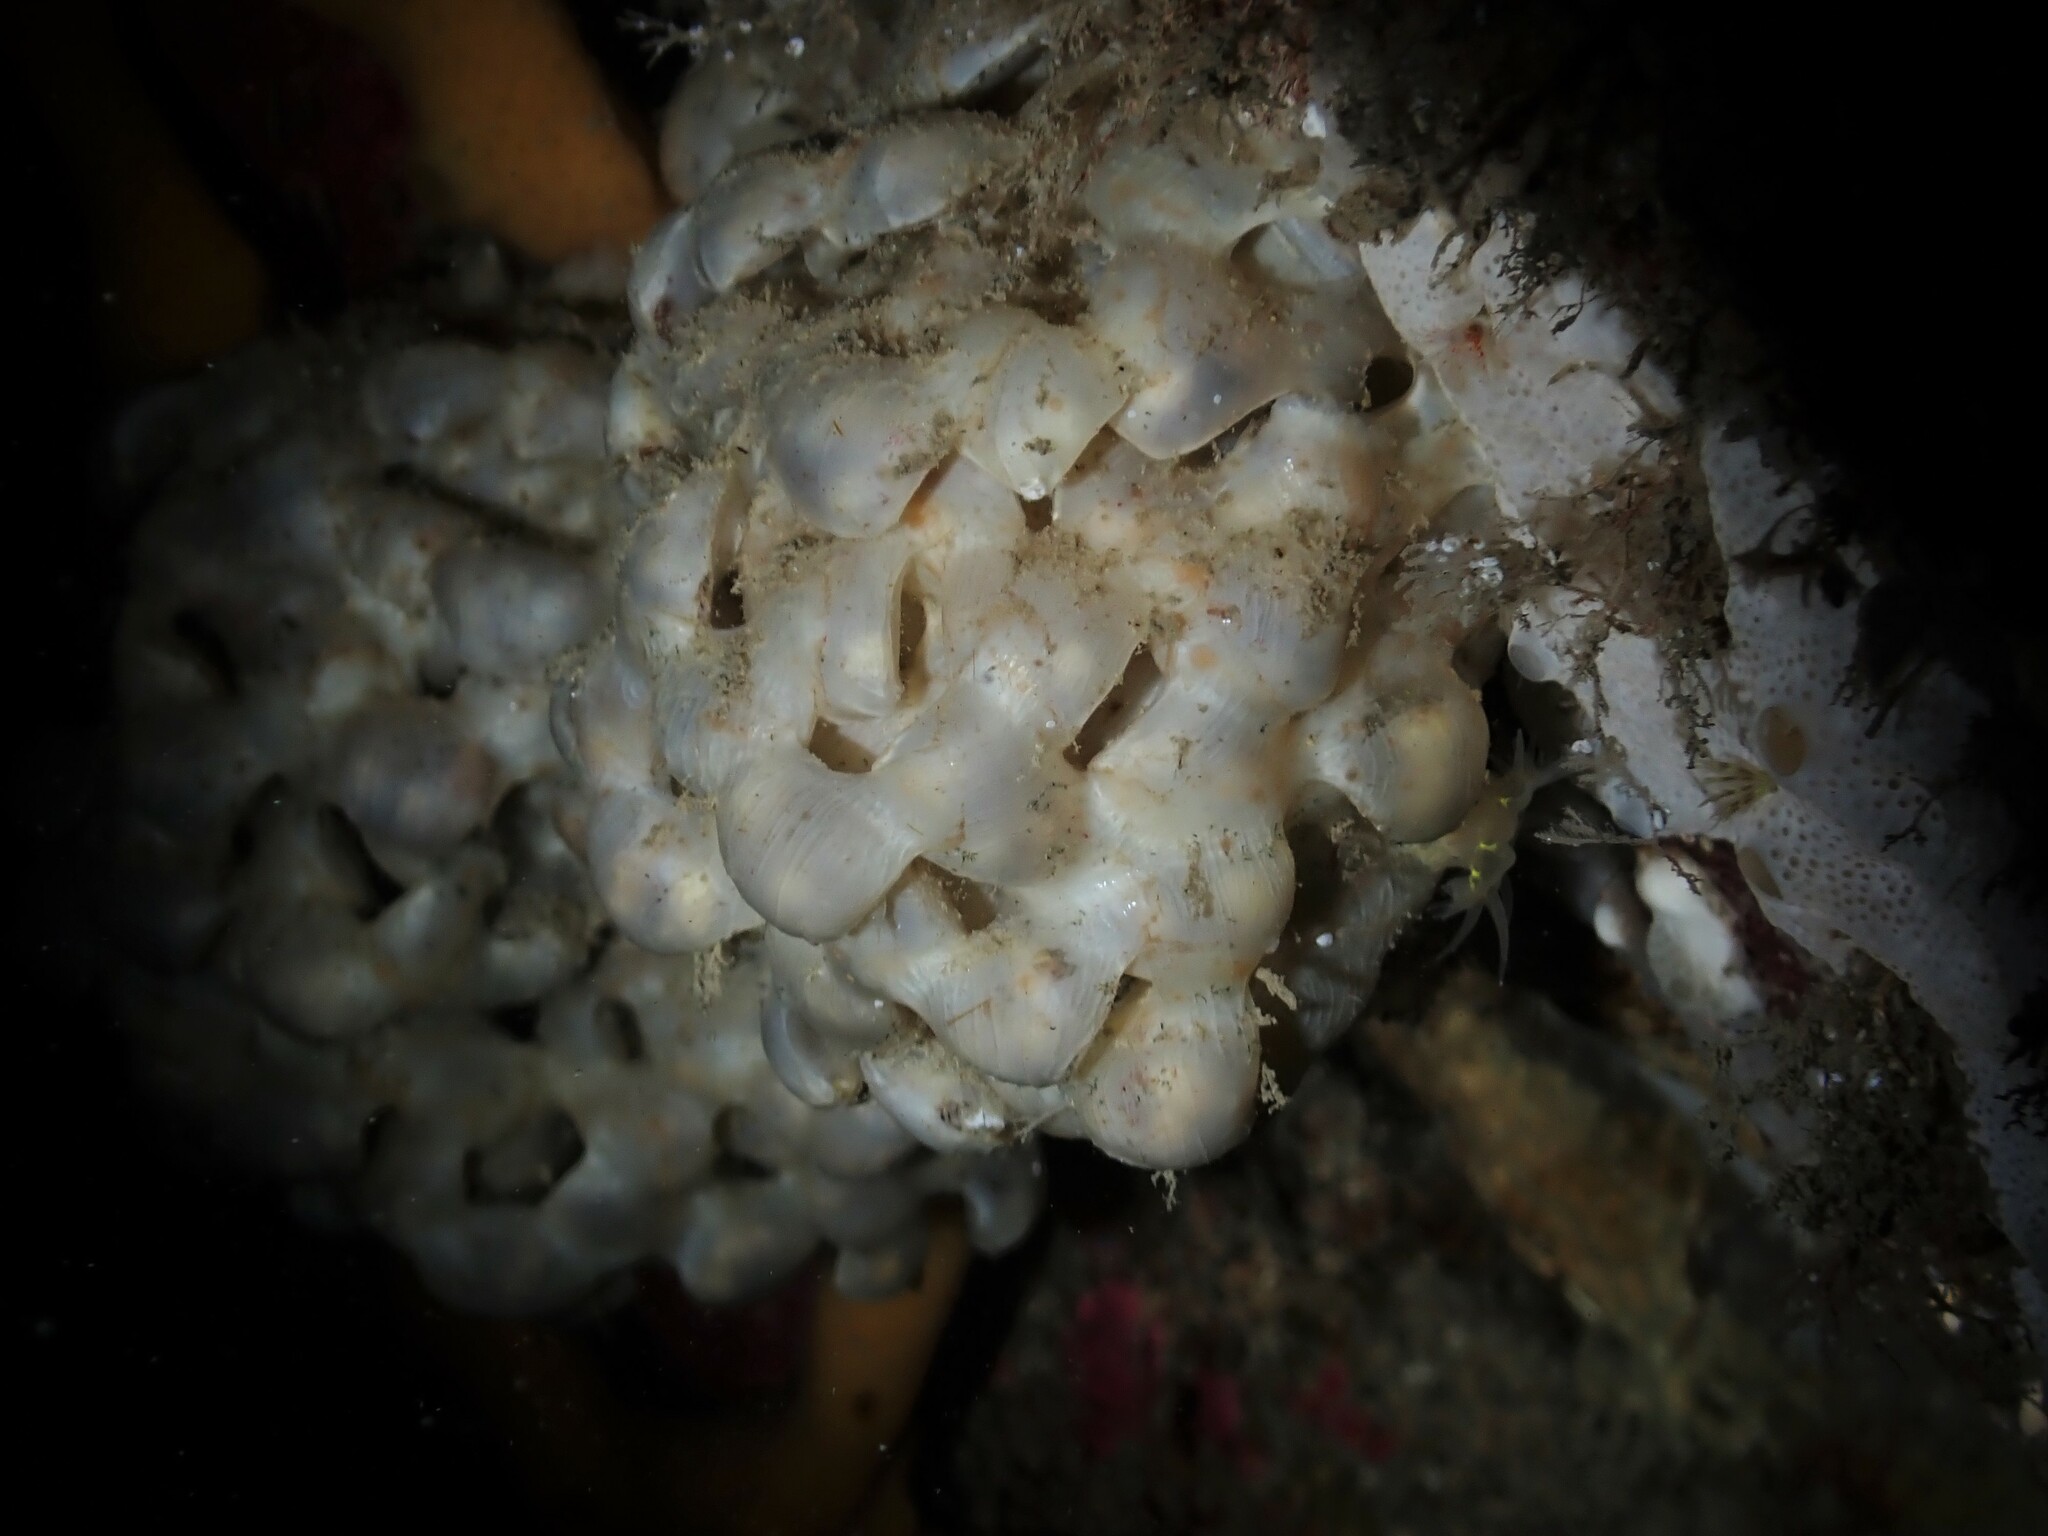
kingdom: Animalia
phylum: Mollusca
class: Gastropoda
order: Neogastropoda
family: Austrosiphonidae
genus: Penion
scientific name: Penion sulcatus
